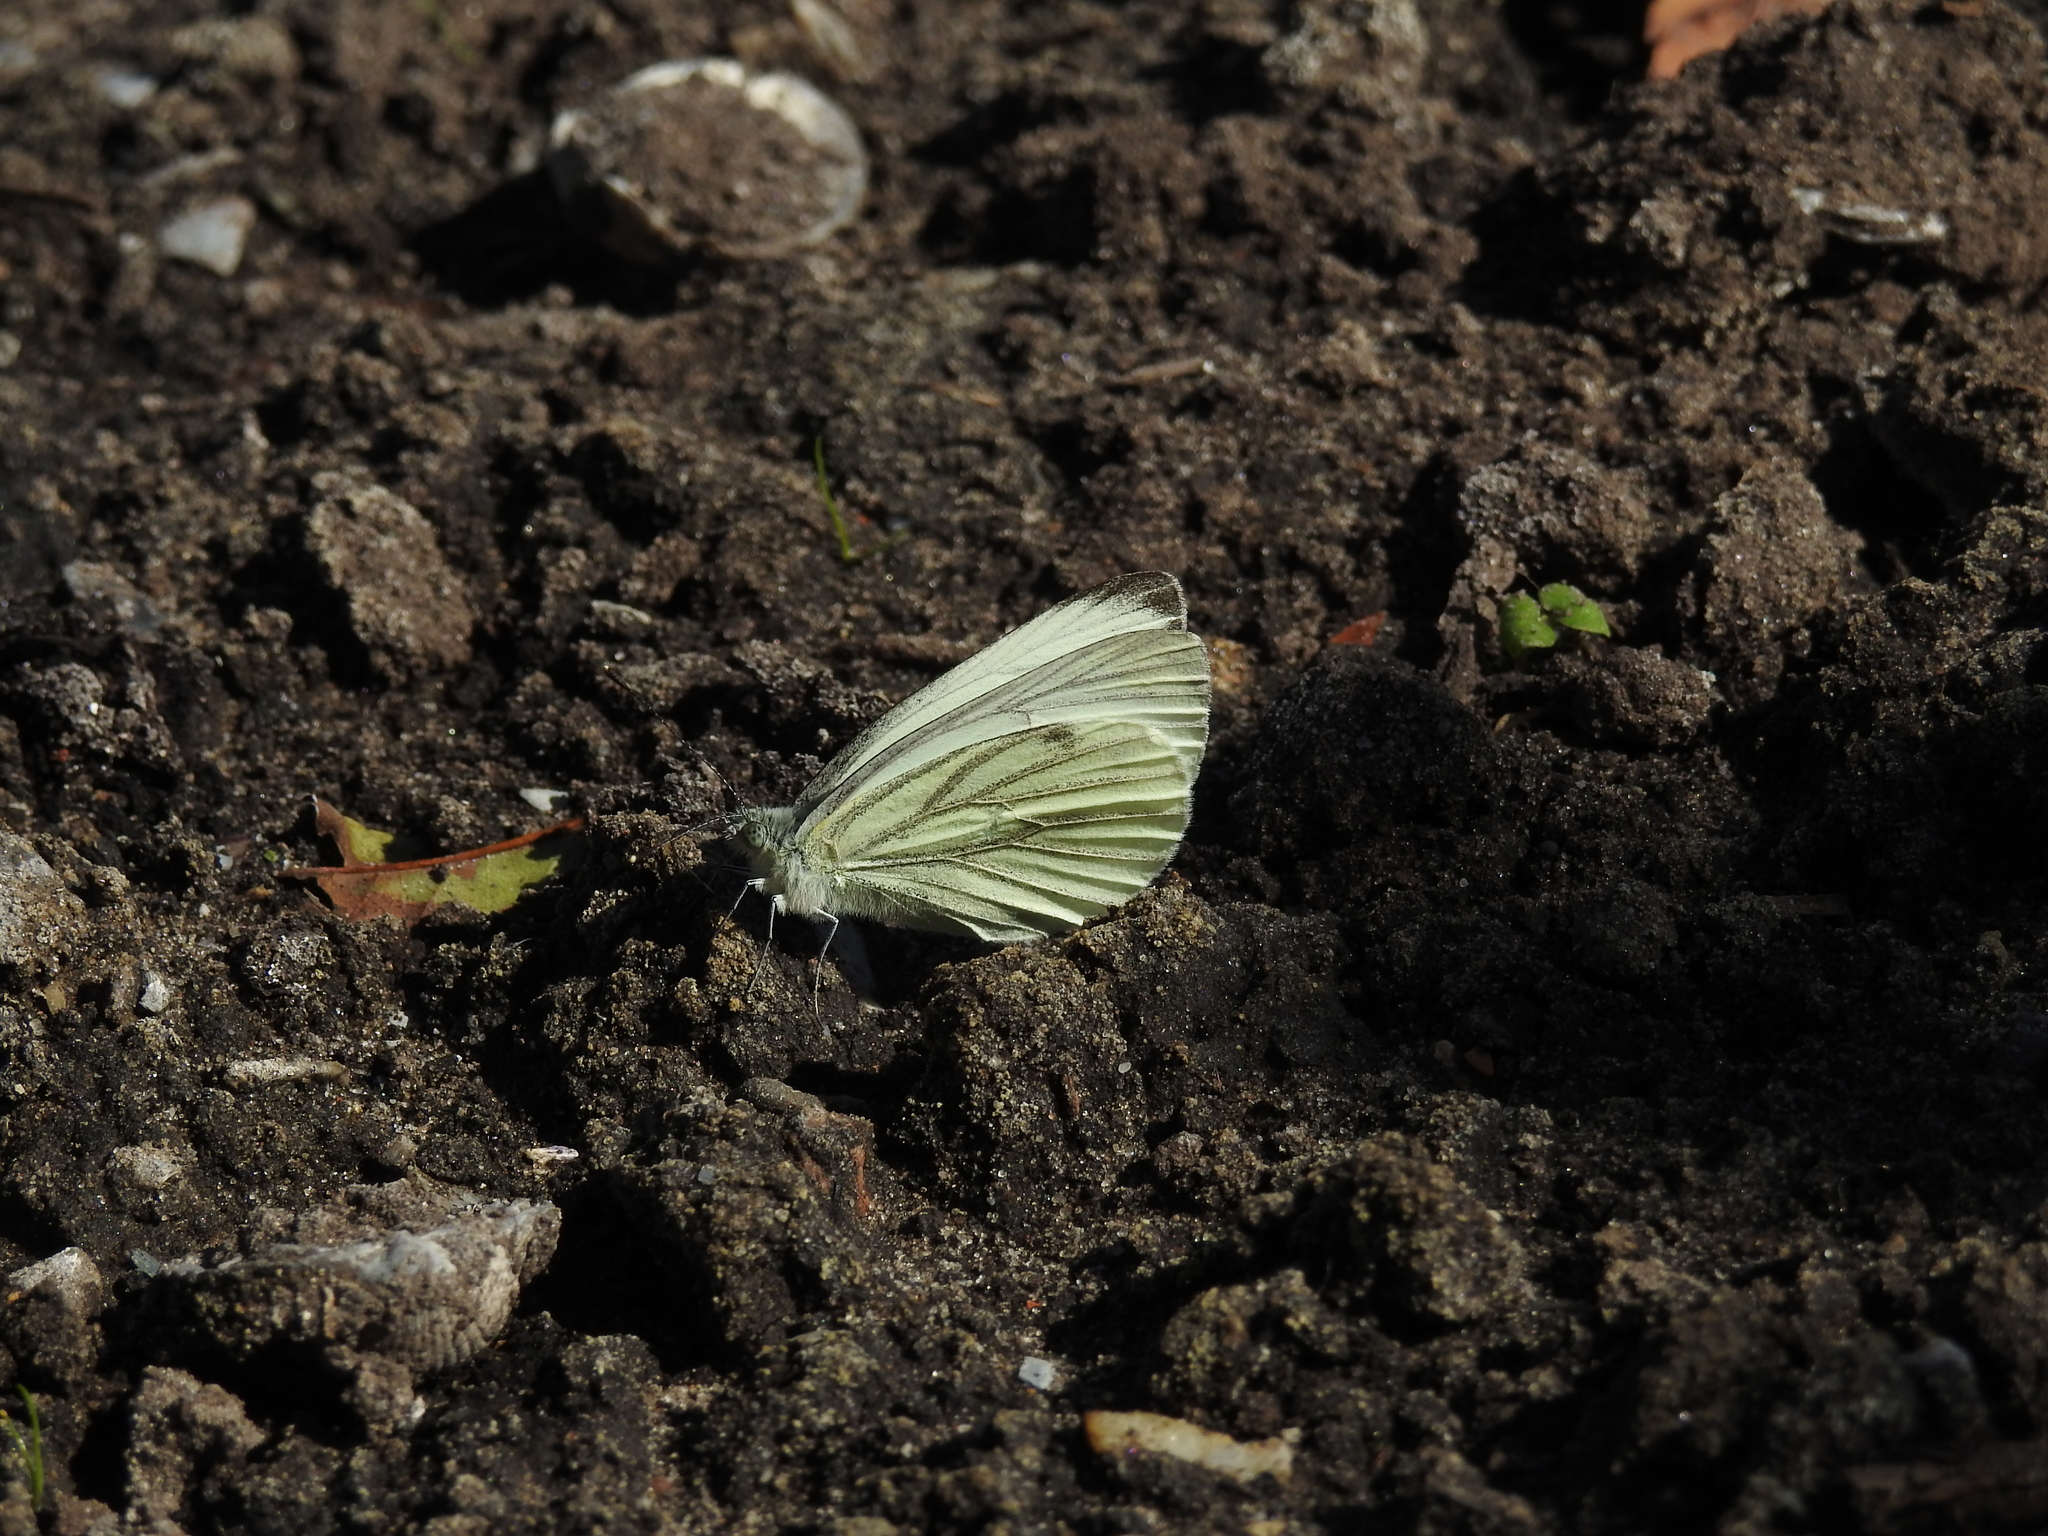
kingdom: Animalia
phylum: Arthropoda
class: Insecta
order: Lepidoptera
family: Pieridae
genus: Pieris
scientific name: Pieris napi
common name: Green-veined white
